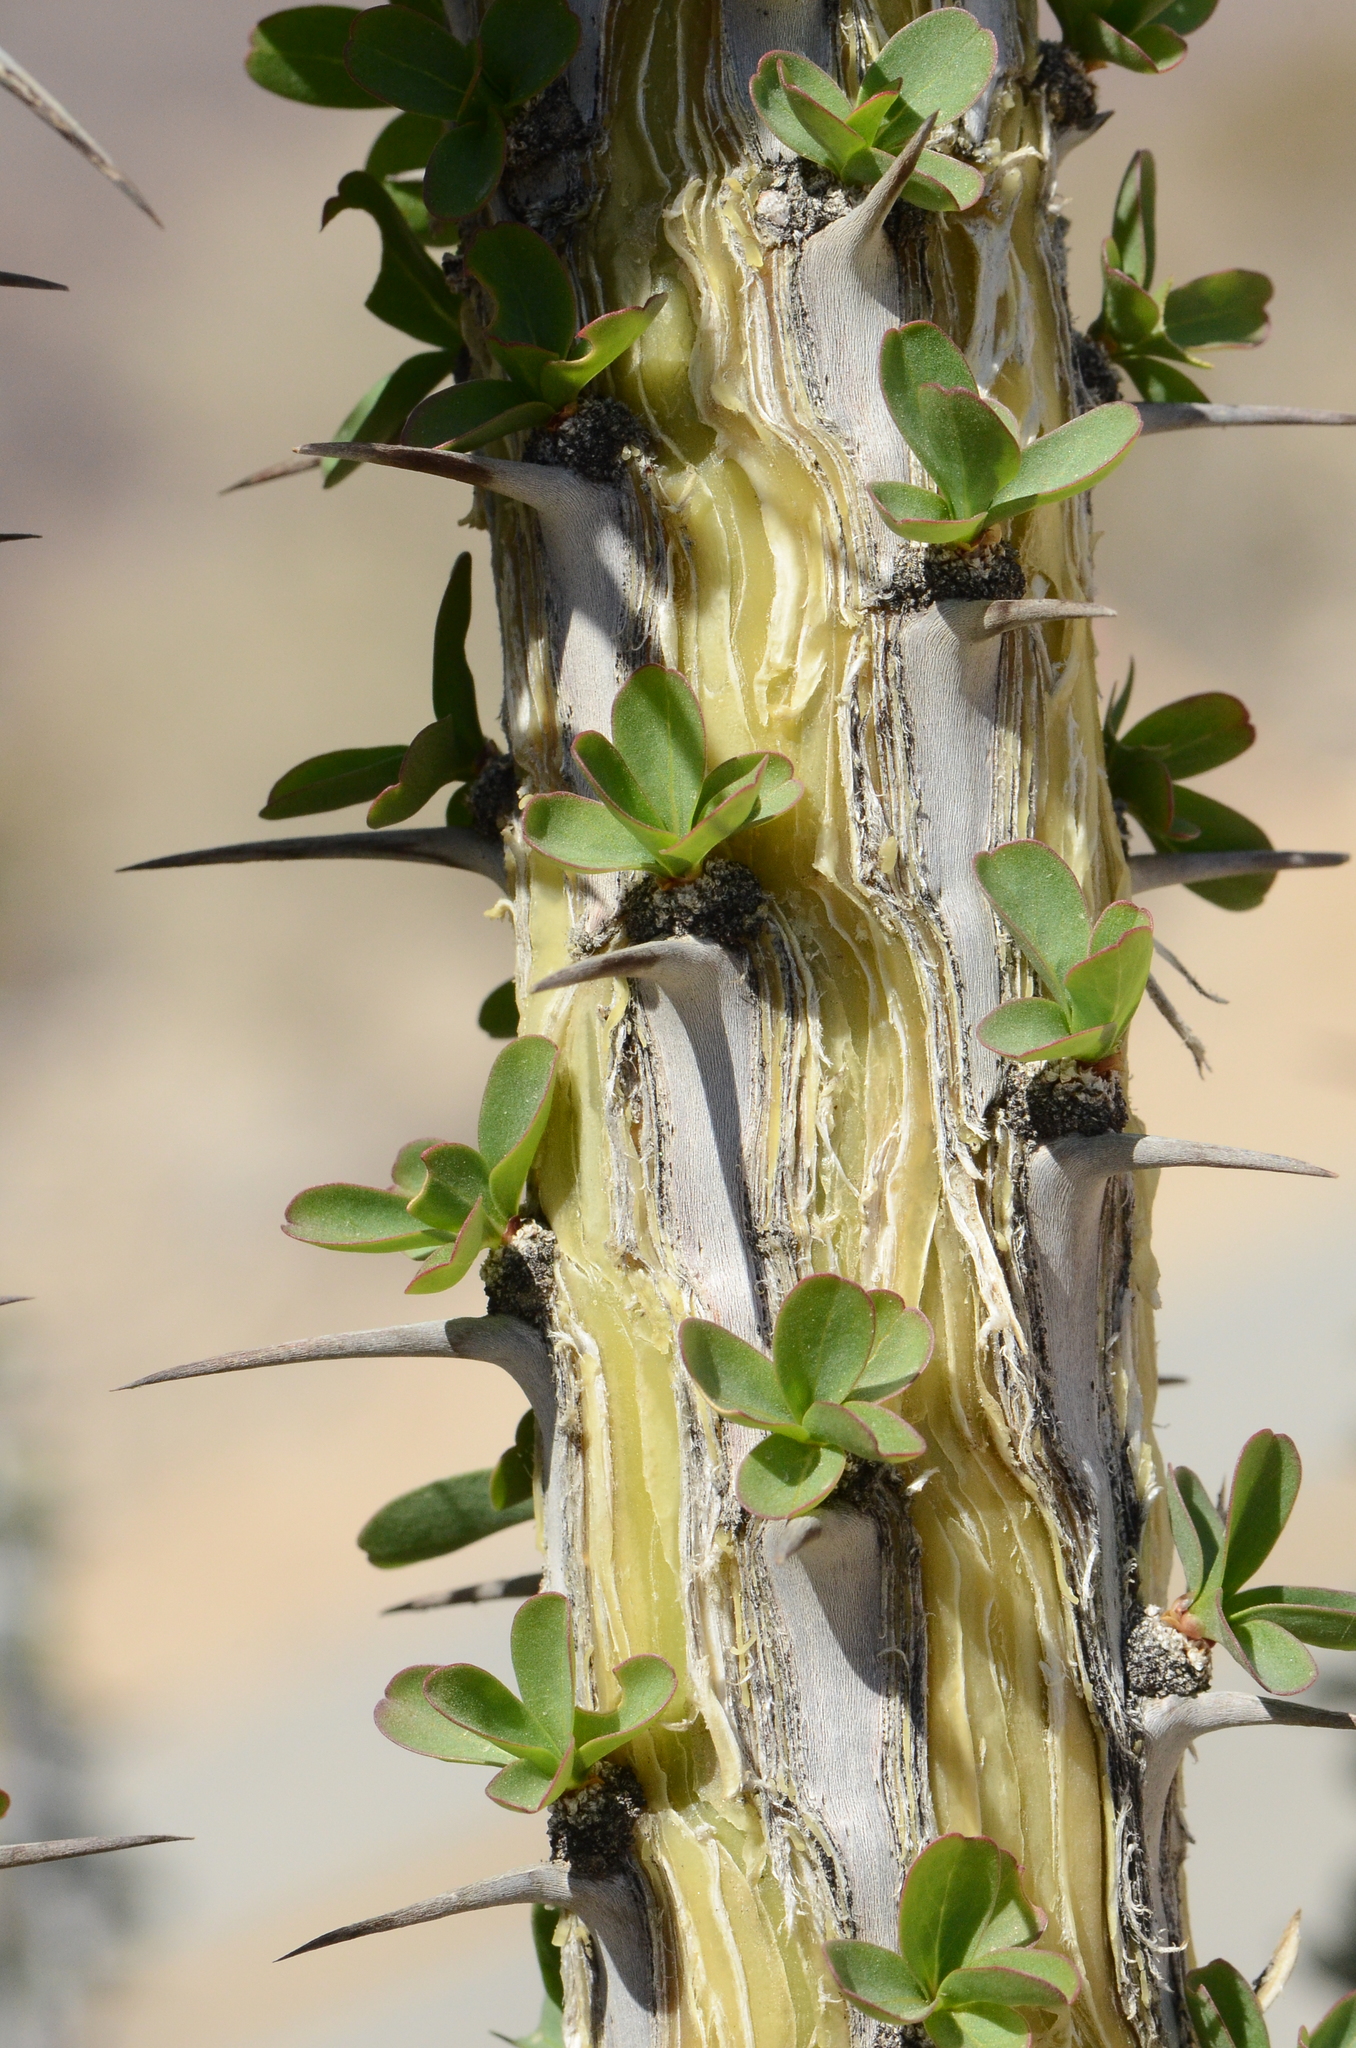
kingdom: Plantae
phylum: Tracheophyta
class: Magnoliopsida
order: Ericales
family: Fouquieriaceae
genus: Fouquieria
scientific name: Fouquieria splendens
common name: Vine-cactus
